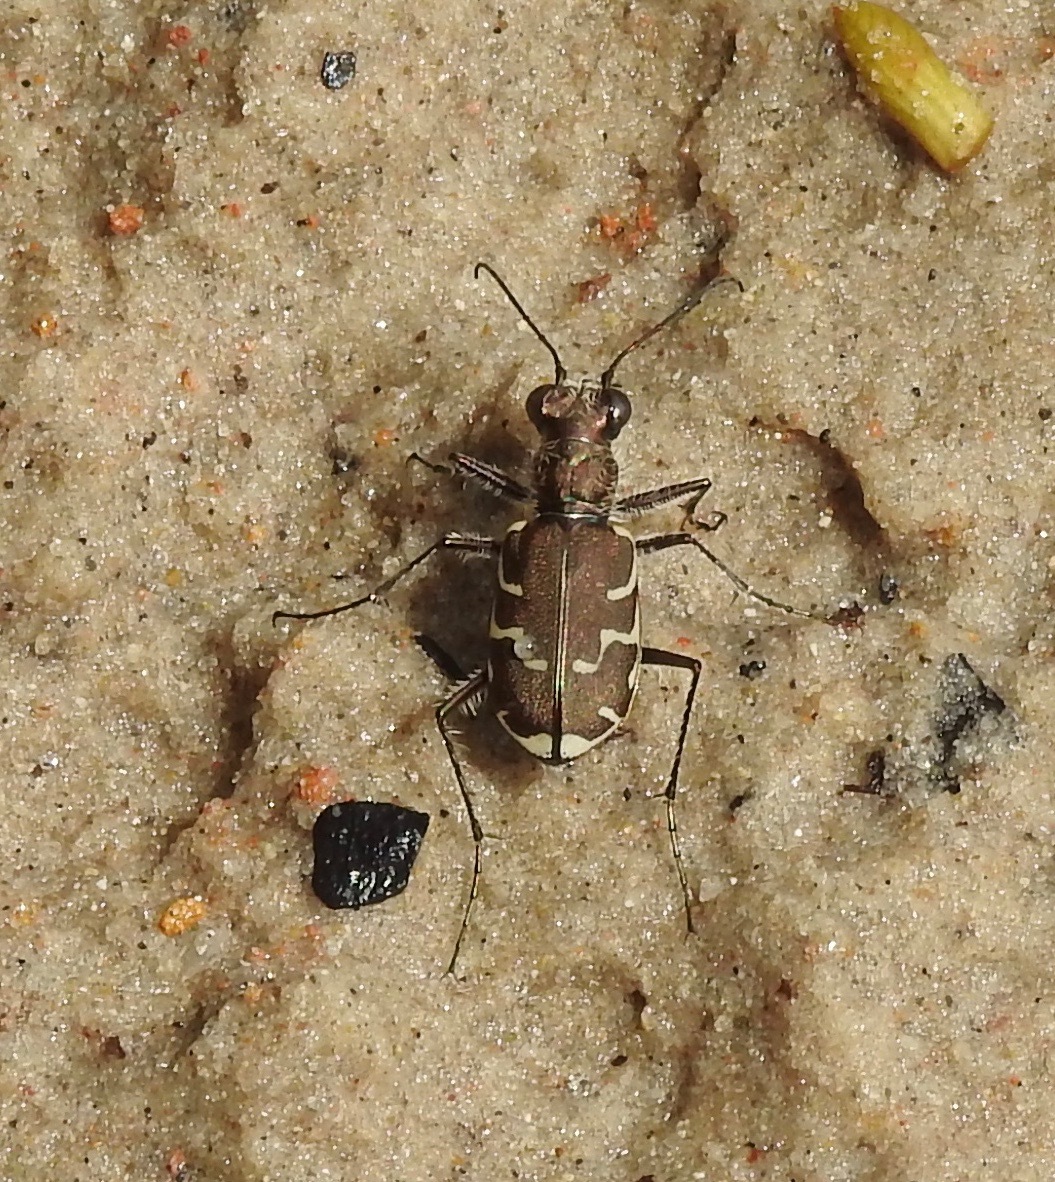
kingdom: Animalia
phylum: Arthropoda
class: Insecta
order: Coleoptera
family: Carabidae
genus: Cicindela
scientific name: Cicindela repanda
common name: Bronzed tiger beetle
